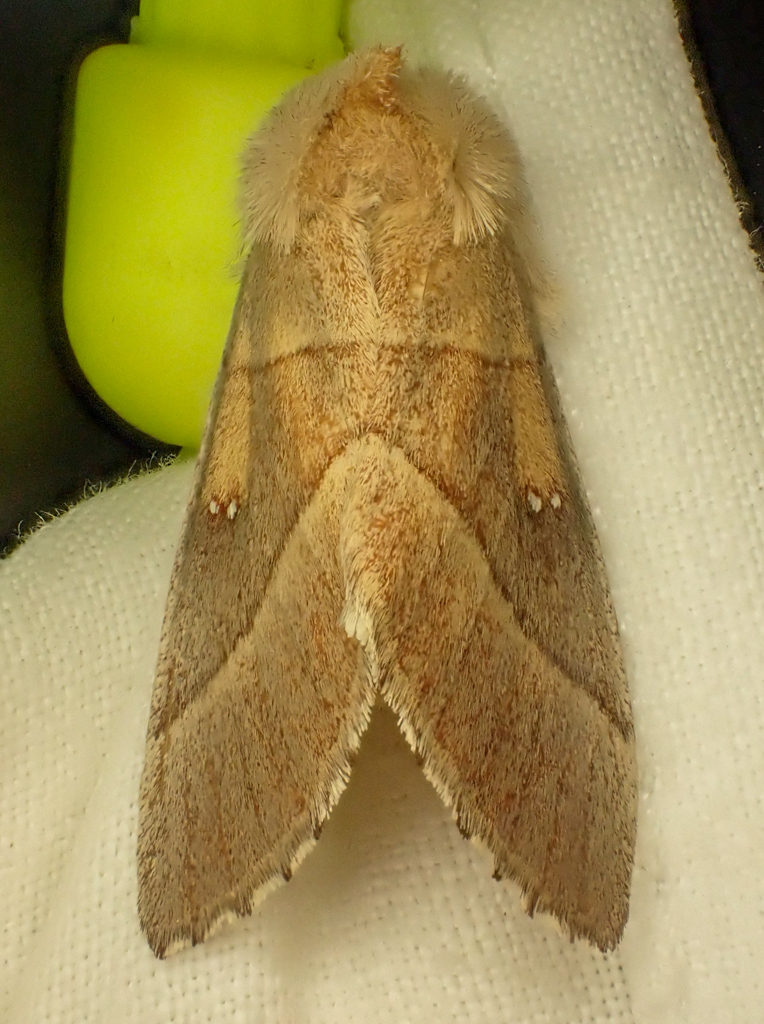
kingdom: Animalia
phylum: Arthropoda
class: Insecta
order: Lepidoptera
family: Notodontidae
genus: Nadata
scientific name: Nadata gibbosa
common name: White-dotted prominent
